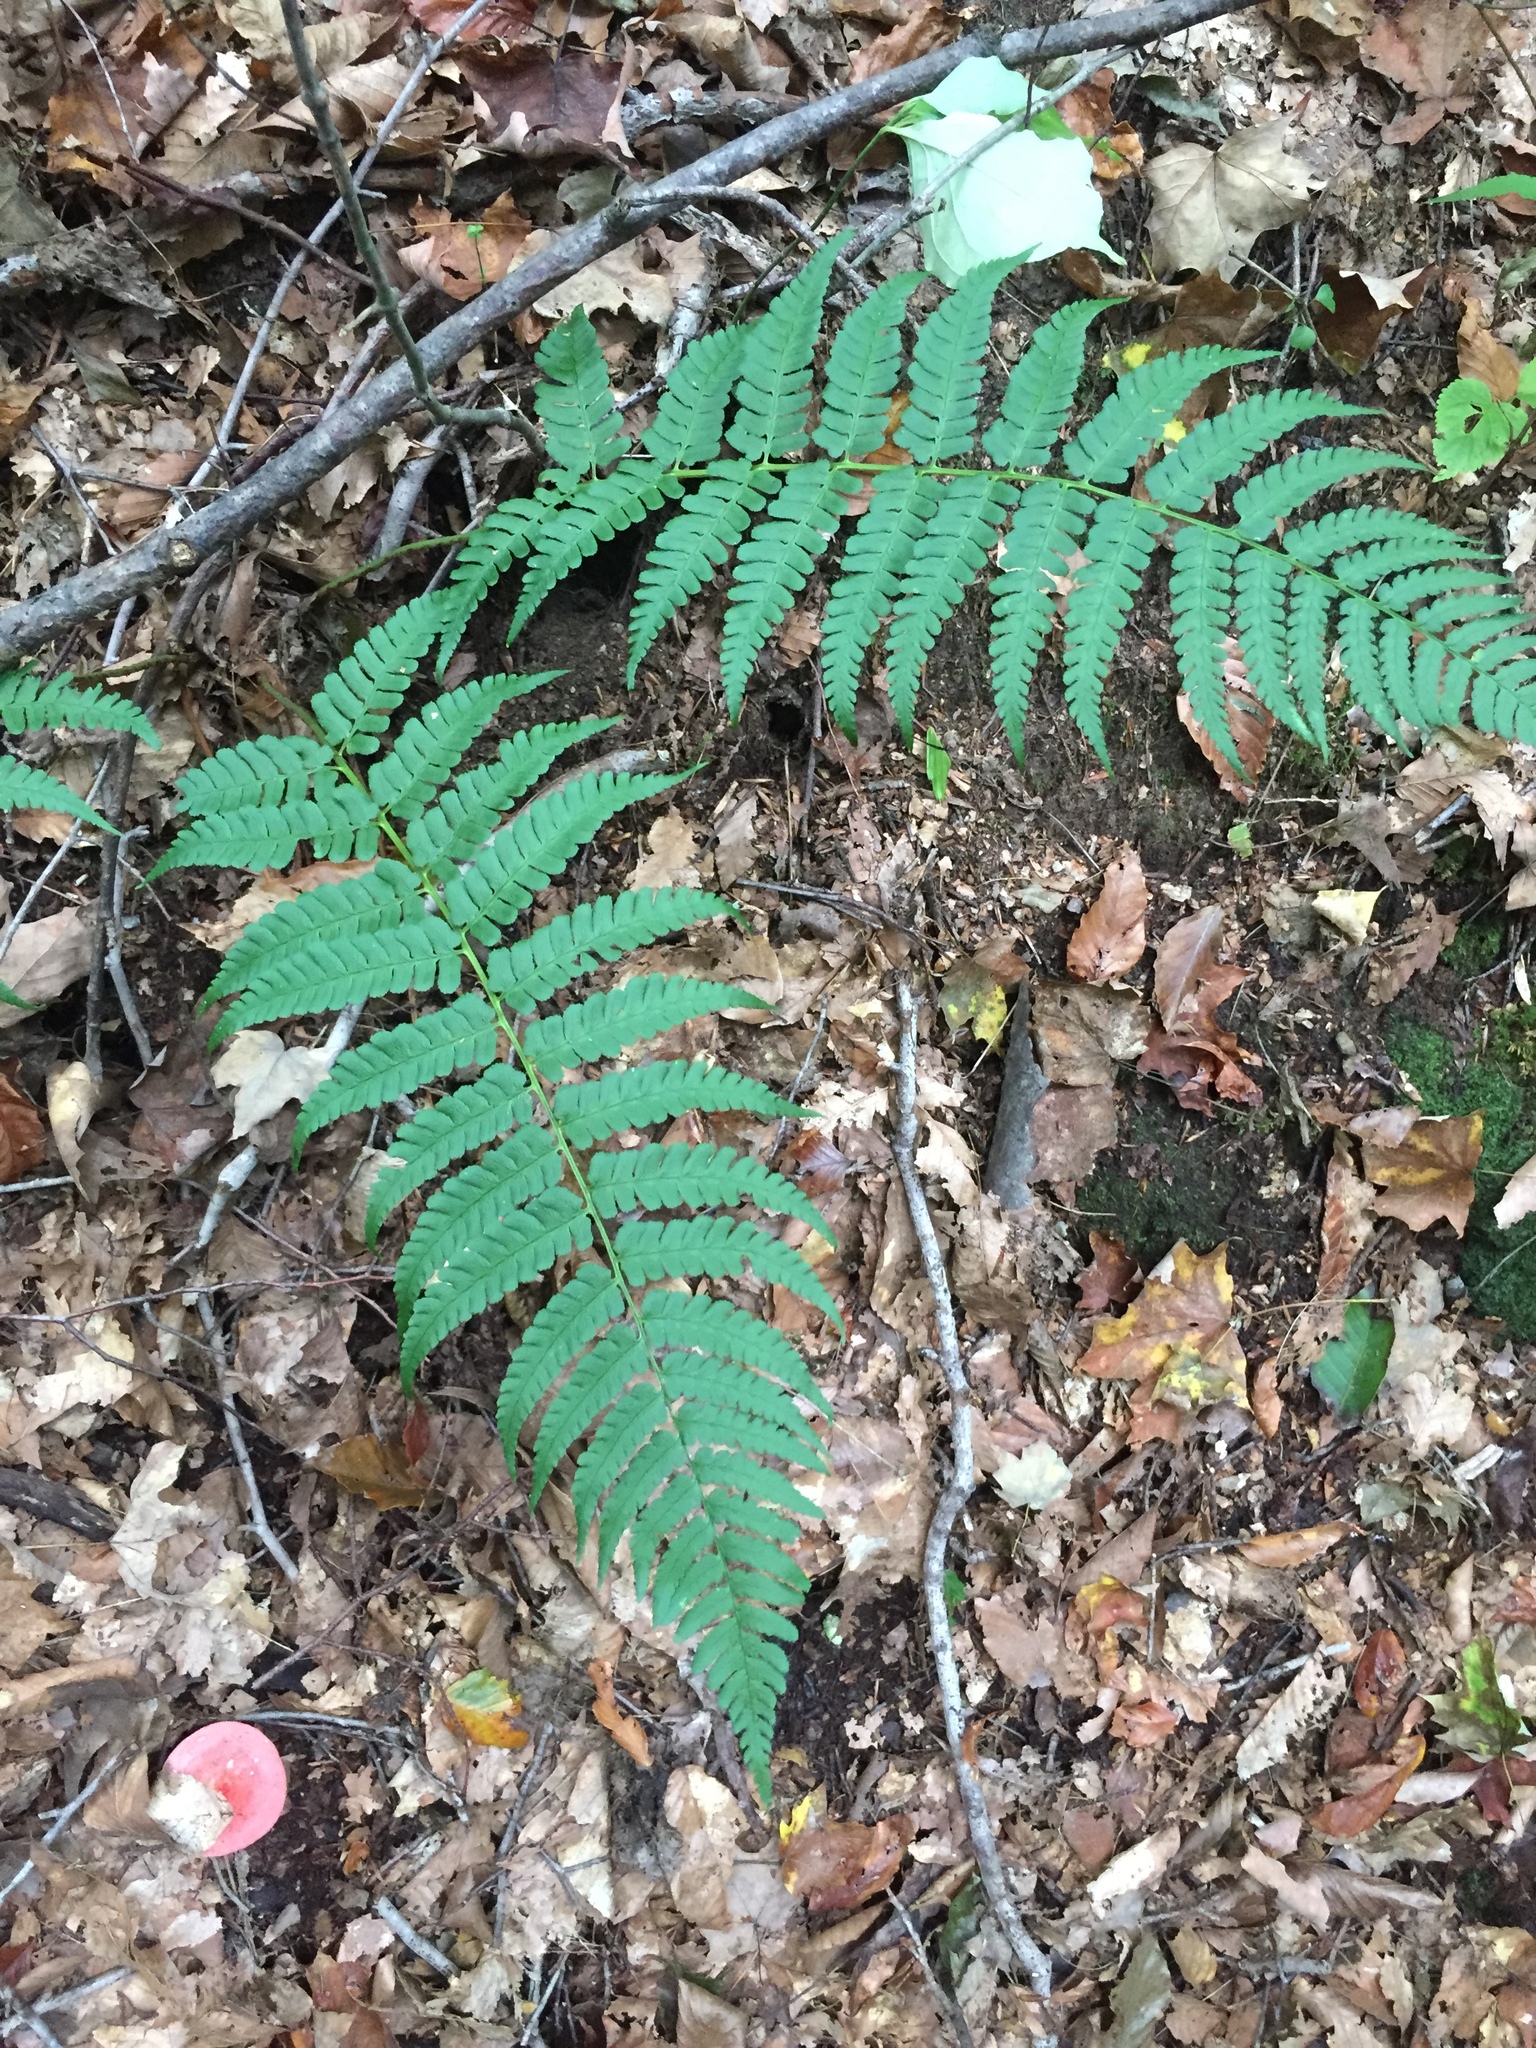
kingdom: Plantae
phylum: Tracheophyta
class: Polypodiopsida
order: Polypodiales
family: Dryopteridaceae
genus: Dryopteris
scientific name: Dryopteris marginalis
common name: Marginal wood fern
